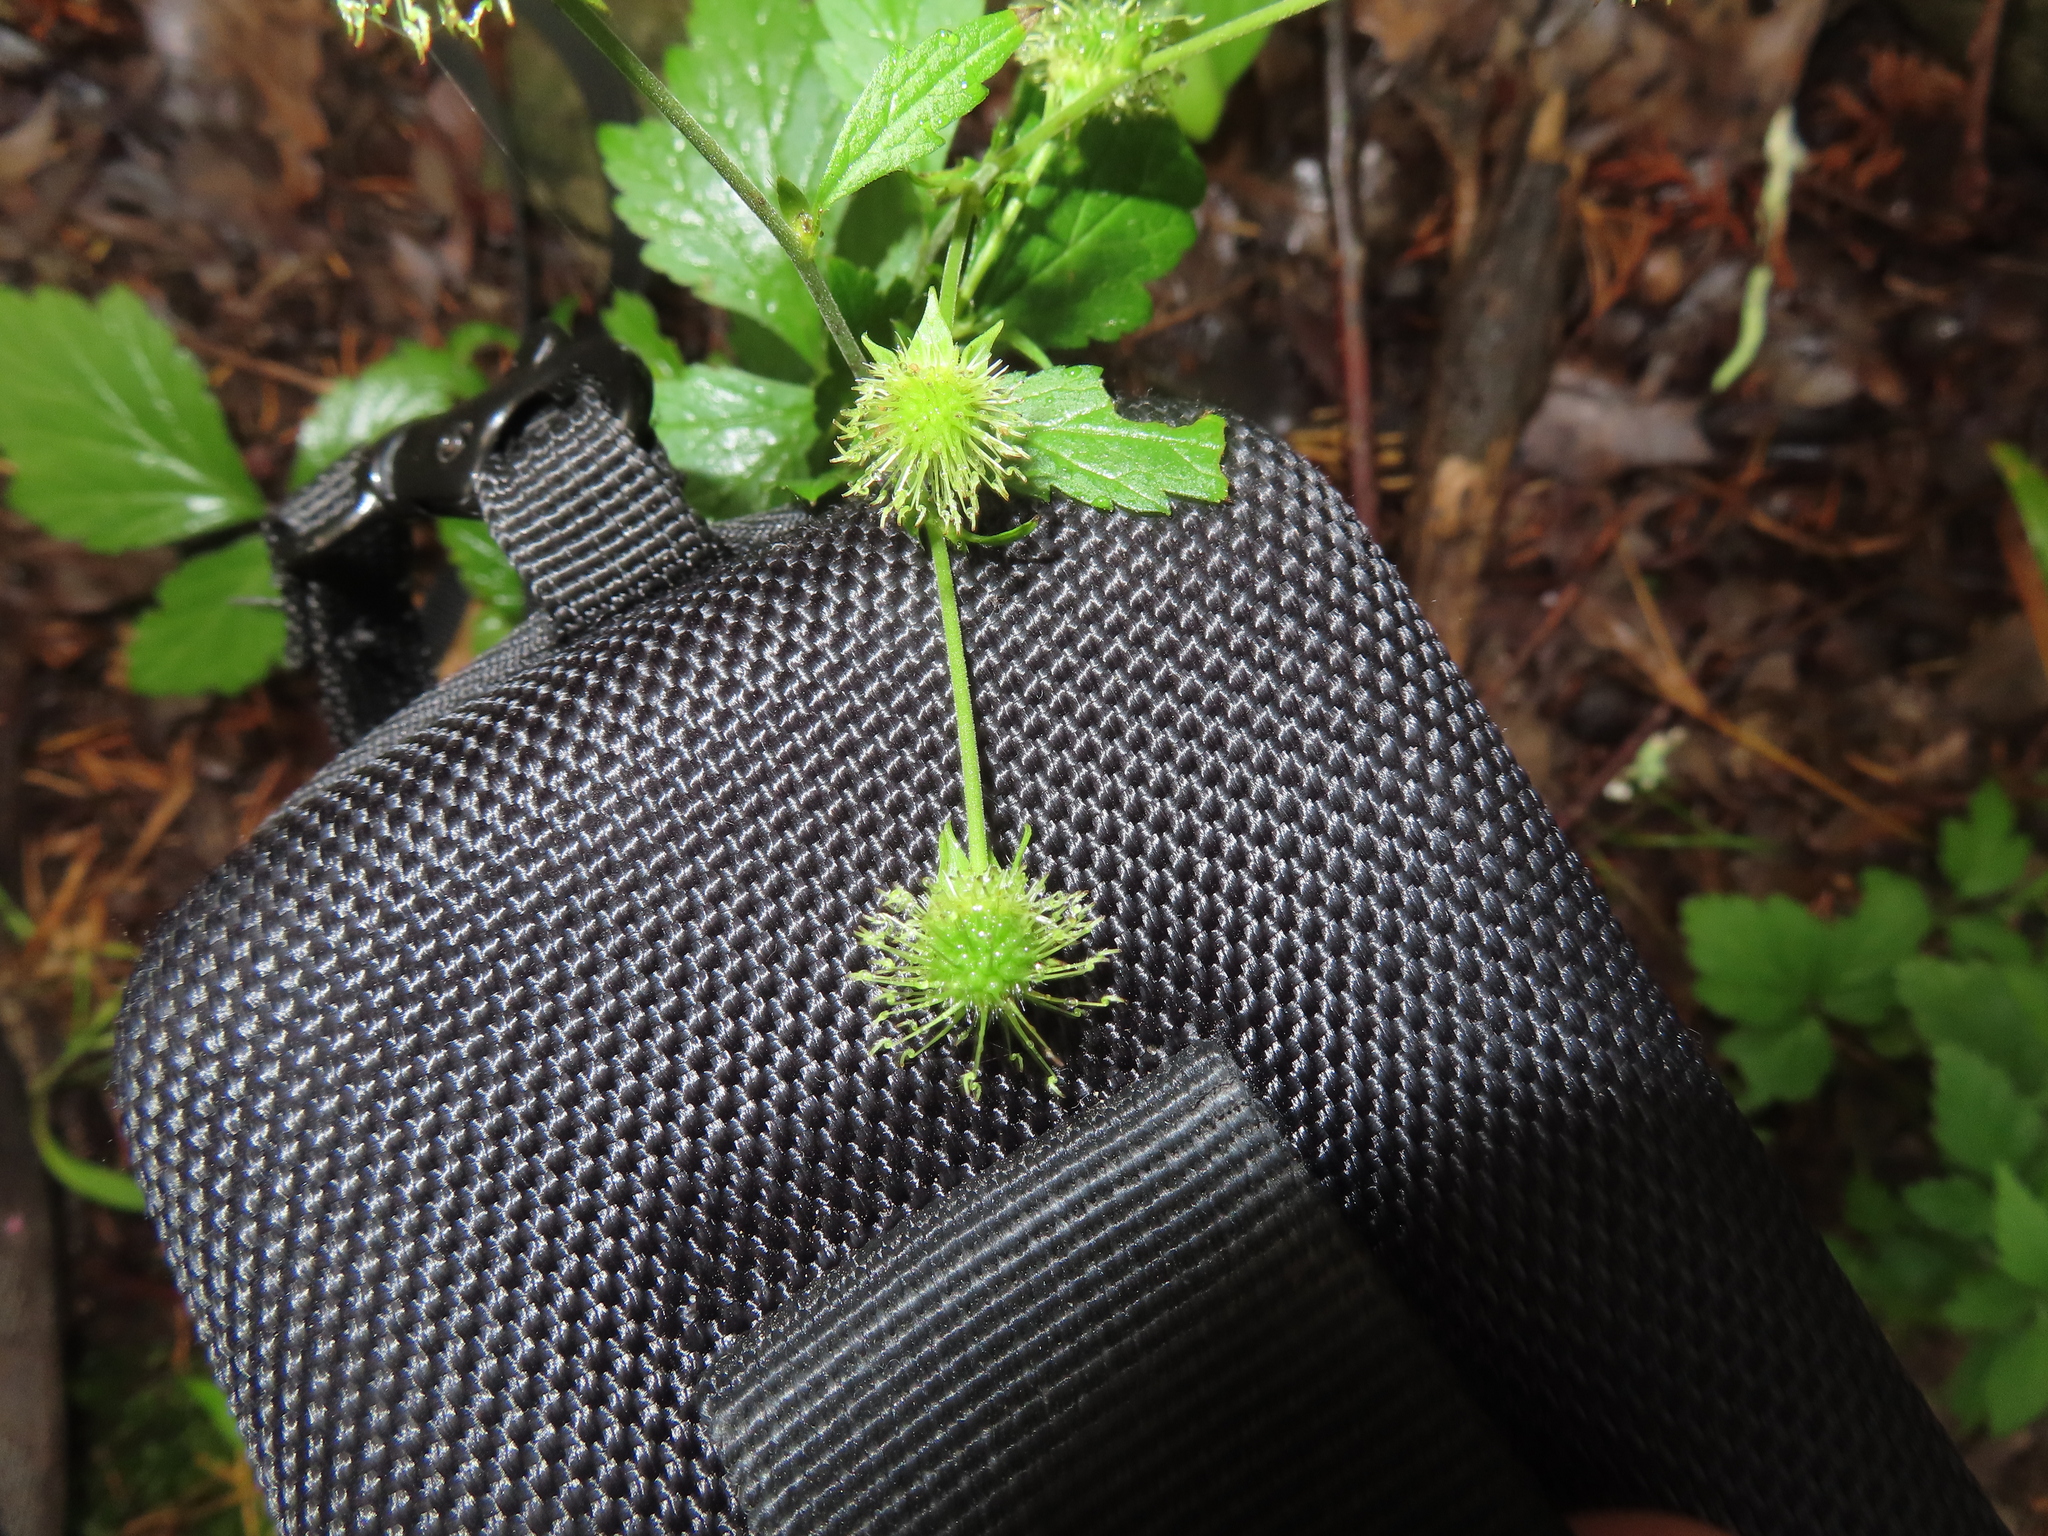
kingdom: Plantae
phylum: Tracheophyta
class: Magnoliopsida
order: Rosales
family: Rosaceae
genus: Geum
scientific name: Geum canadense
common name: White avens
